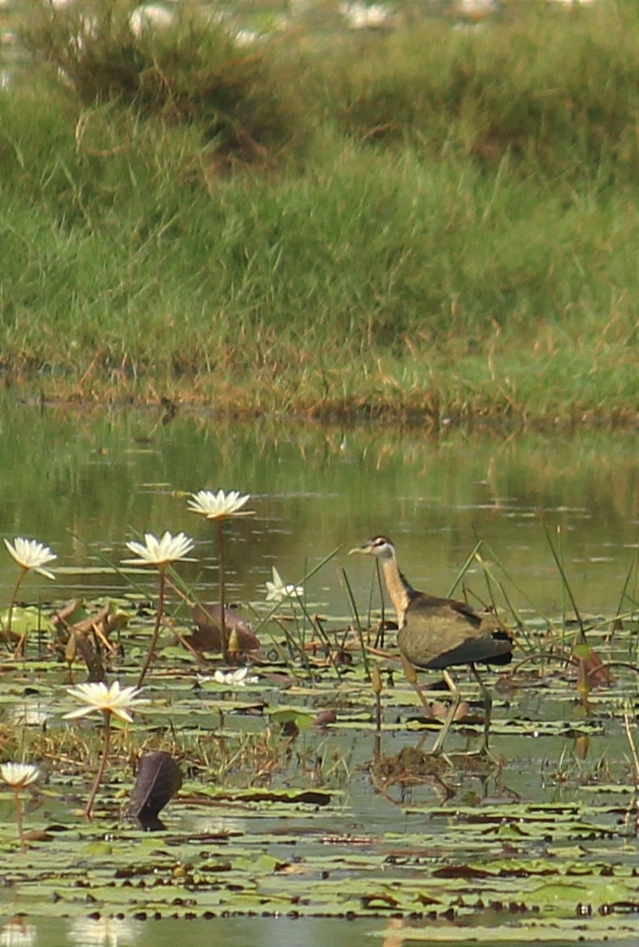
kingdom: Animalia
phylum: Chordata
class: Aves
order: Charadriiformes
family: Jacanidae
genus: Metopidius
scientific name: Metopidius indicus
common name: Bronze-winged jacana
